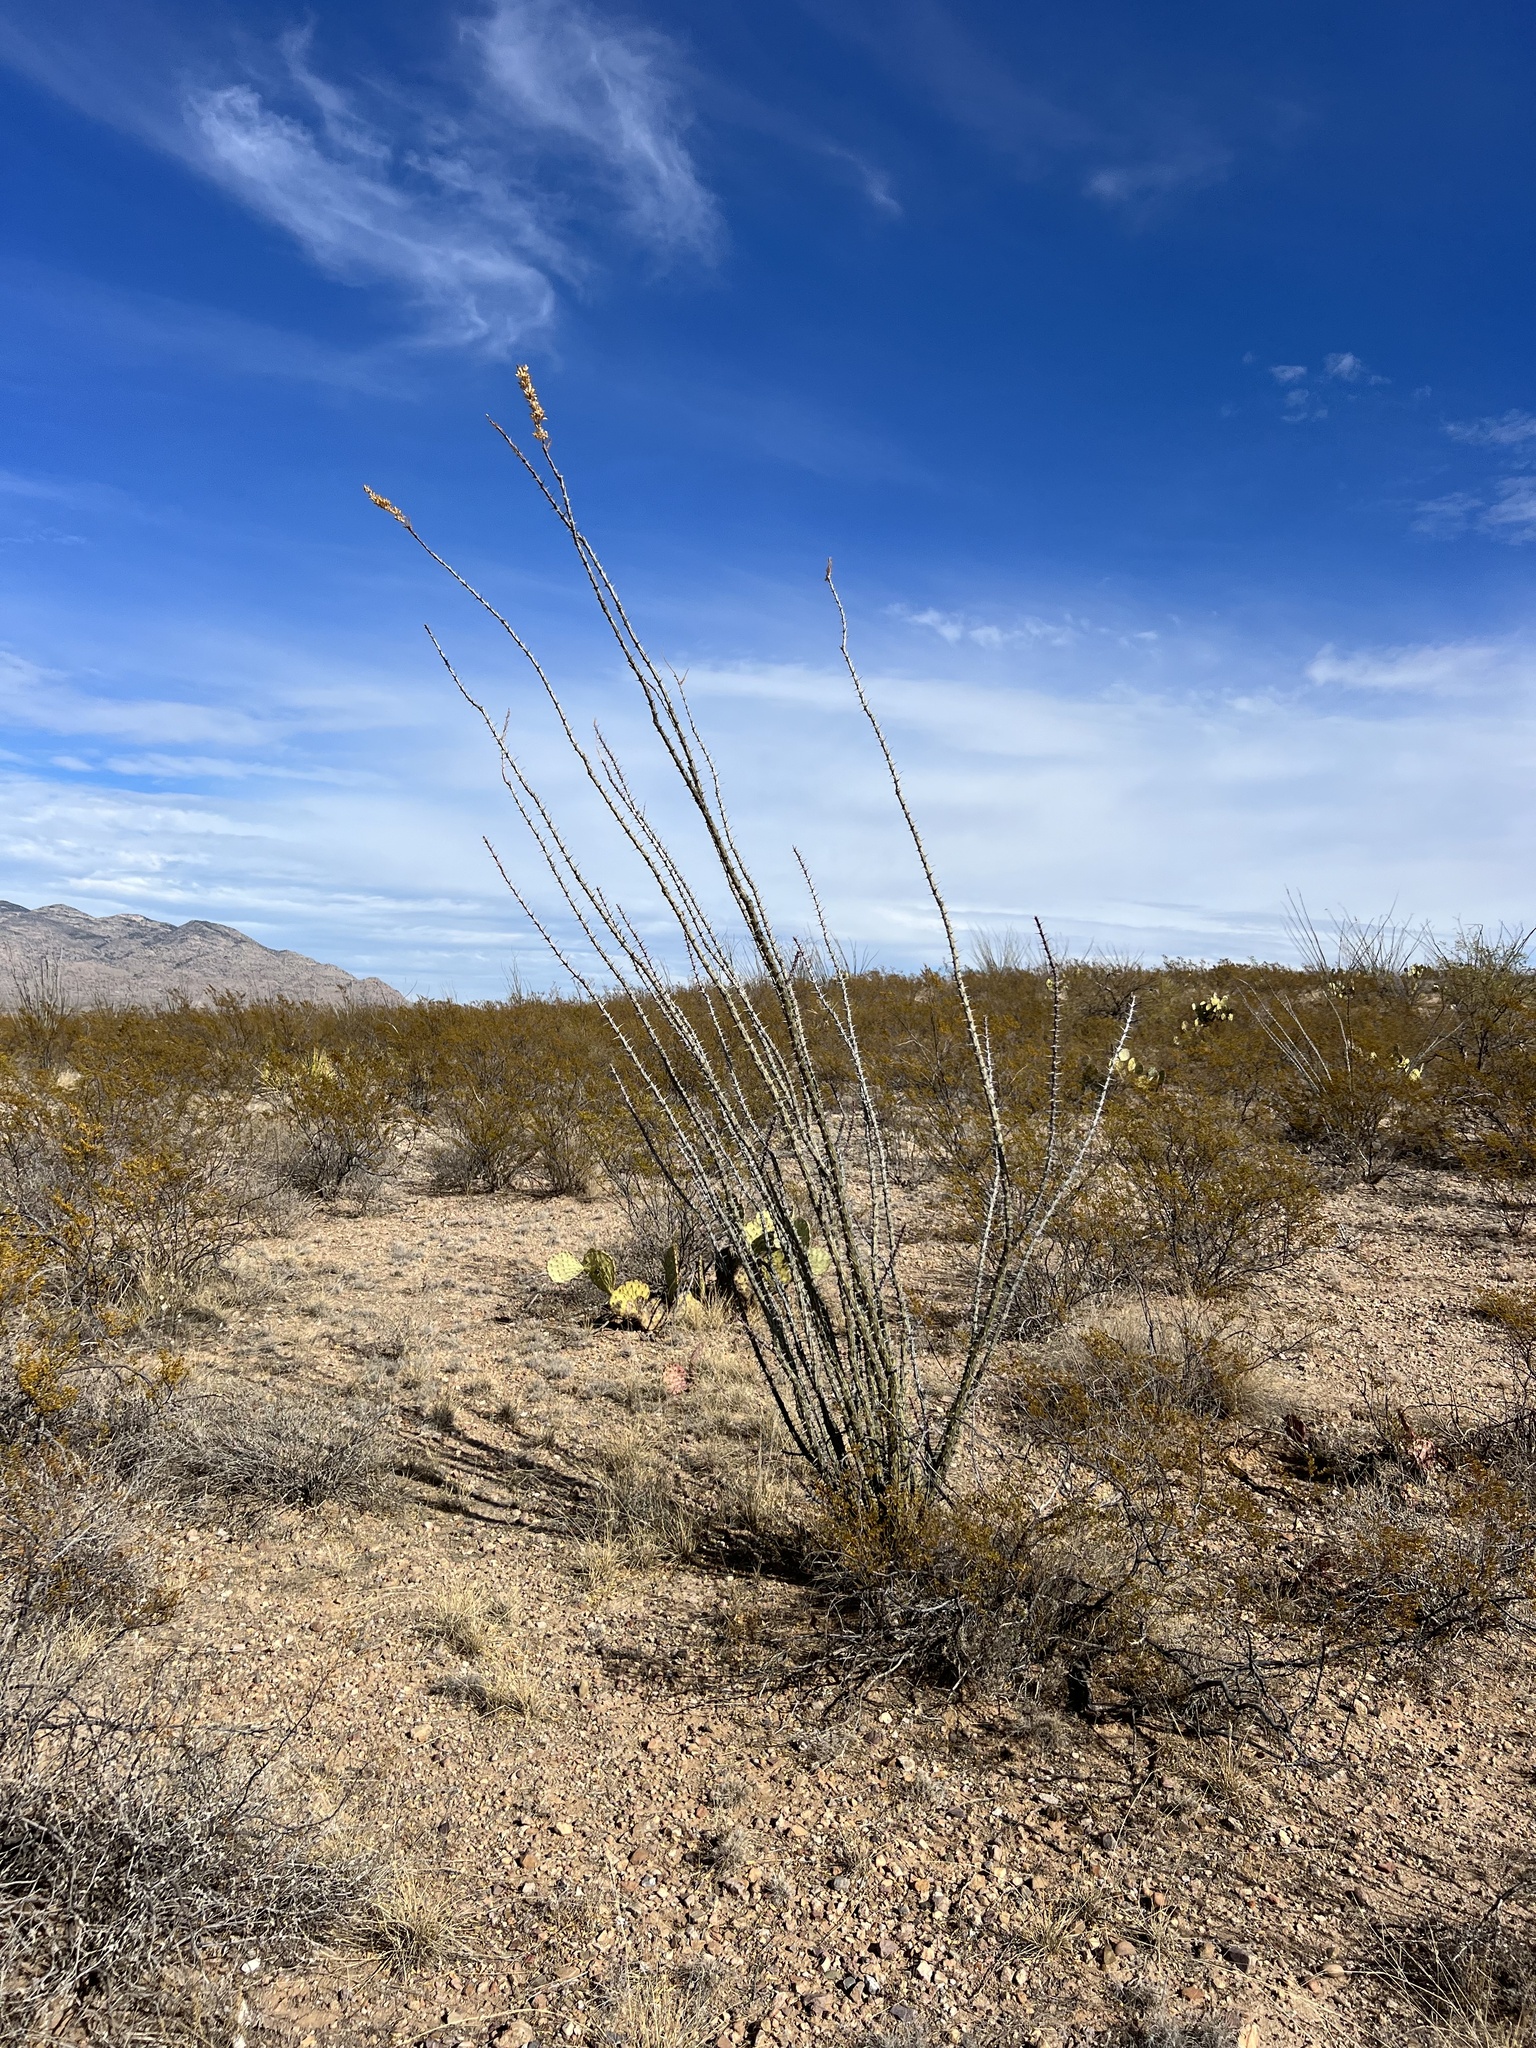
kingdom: Plantae
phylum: Tracheophyta
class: Magnoliopsida
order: Ericales
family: Fouquieriaceae
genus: Fouquieria
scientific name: Fouquieria splendens
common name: Vine-cactus
